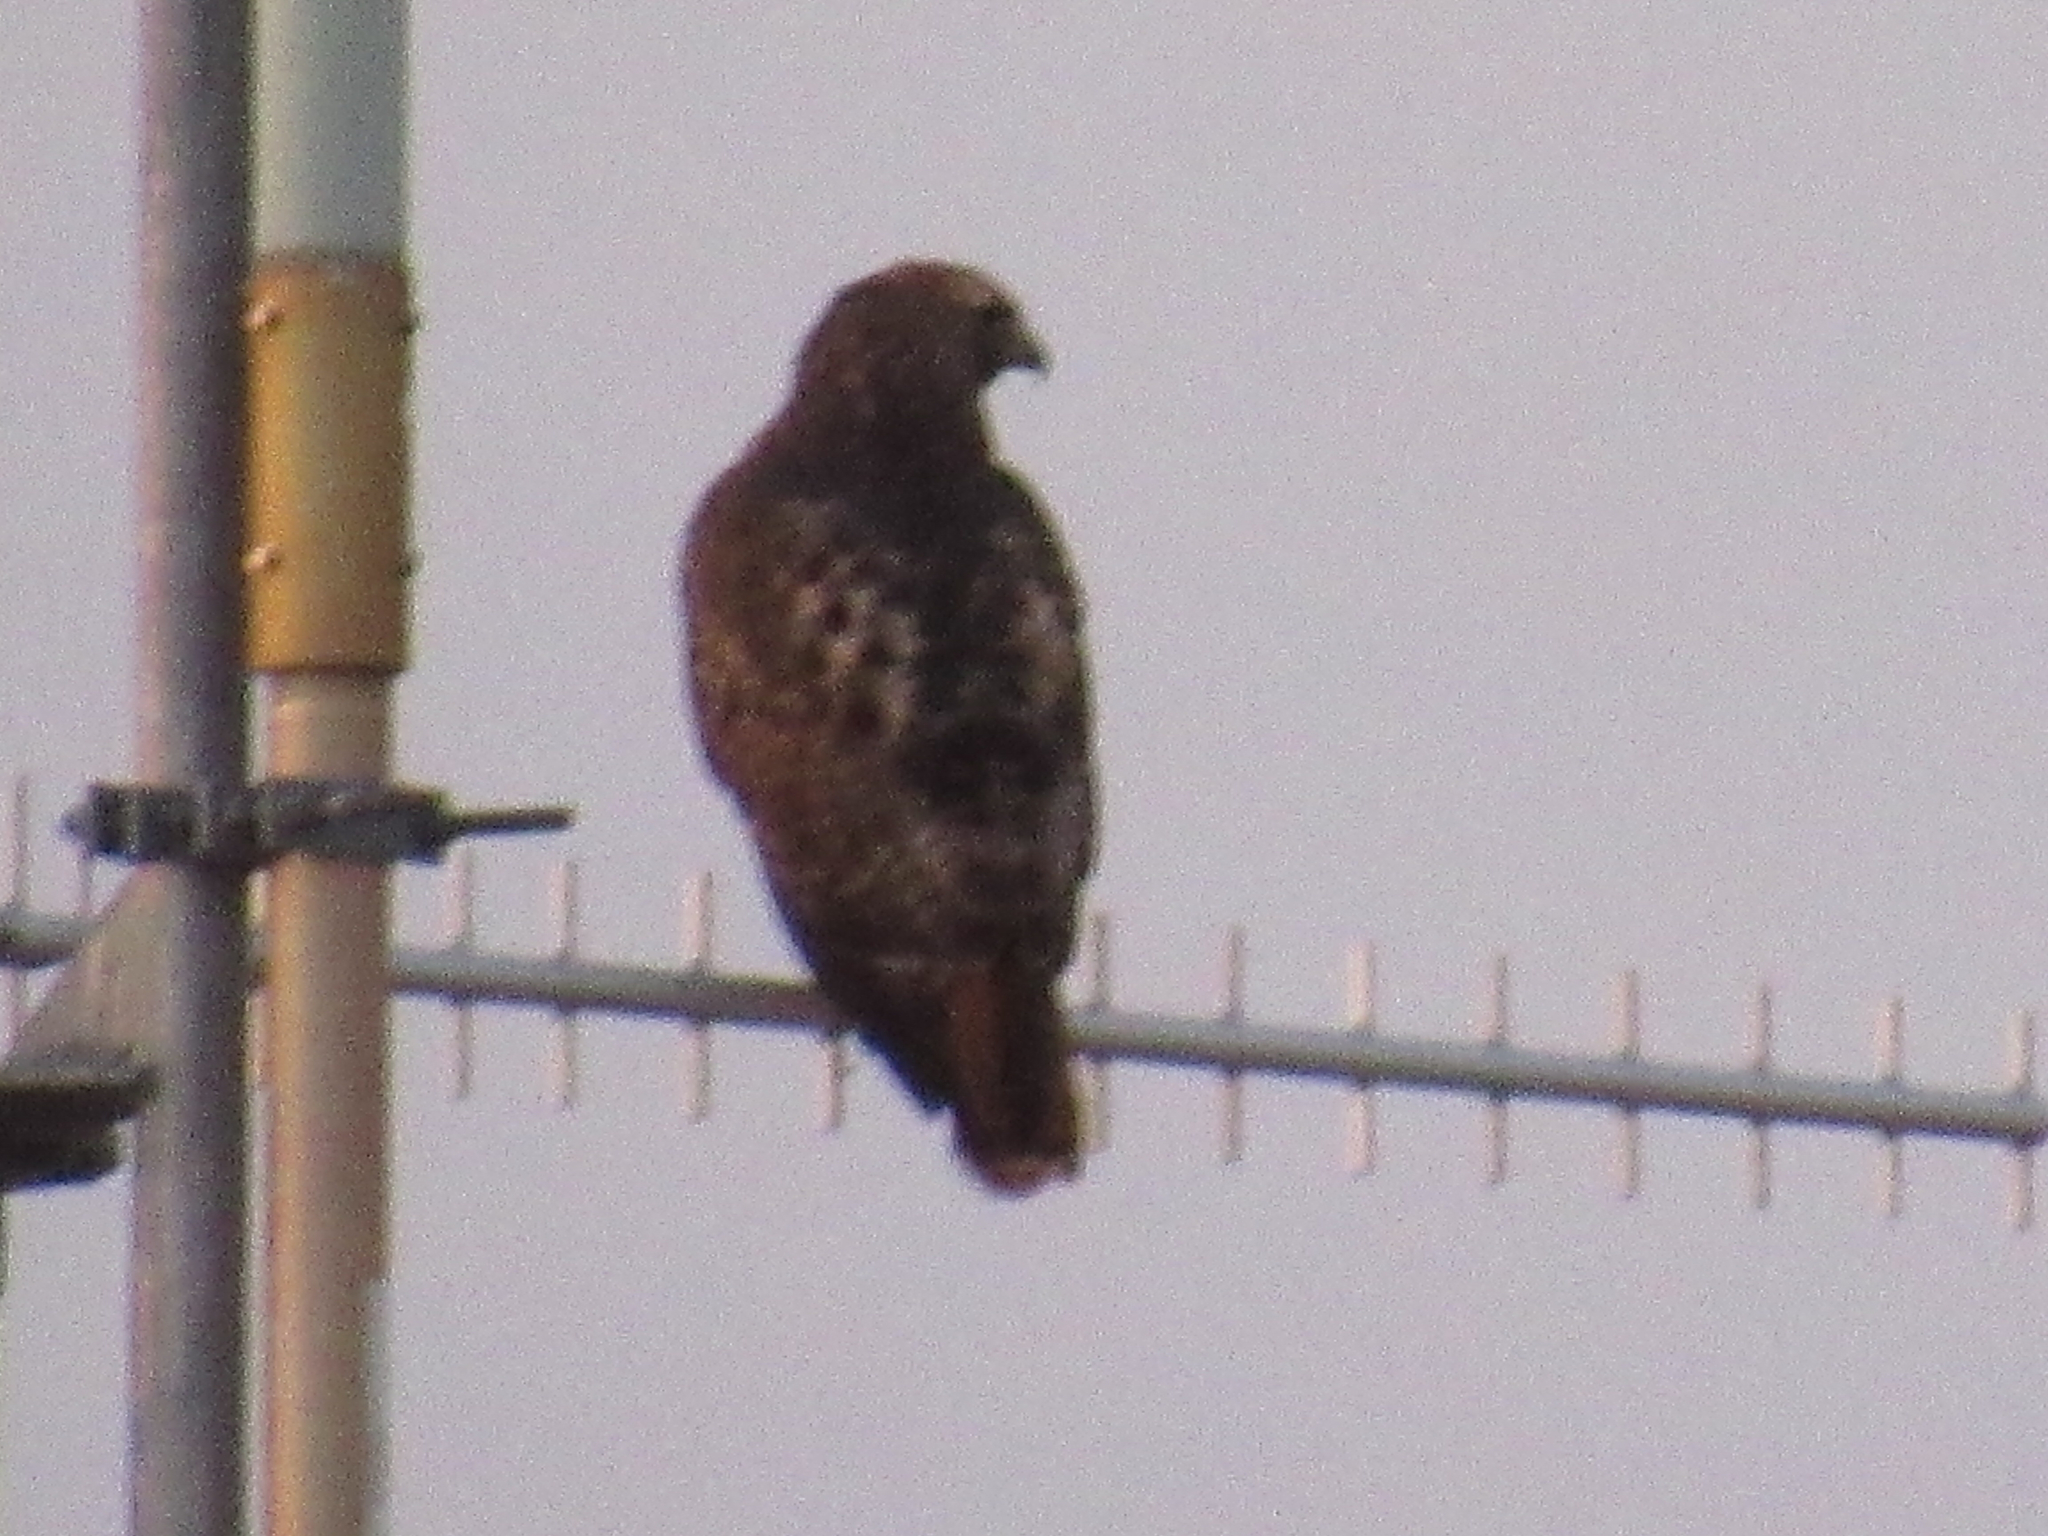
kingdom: Animalia
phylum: Chordata
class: Aves
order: Accipitriformes
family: Accipitridae
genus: Buteo
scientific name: Buteo jamaicensis
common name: Red-tailed hawk
